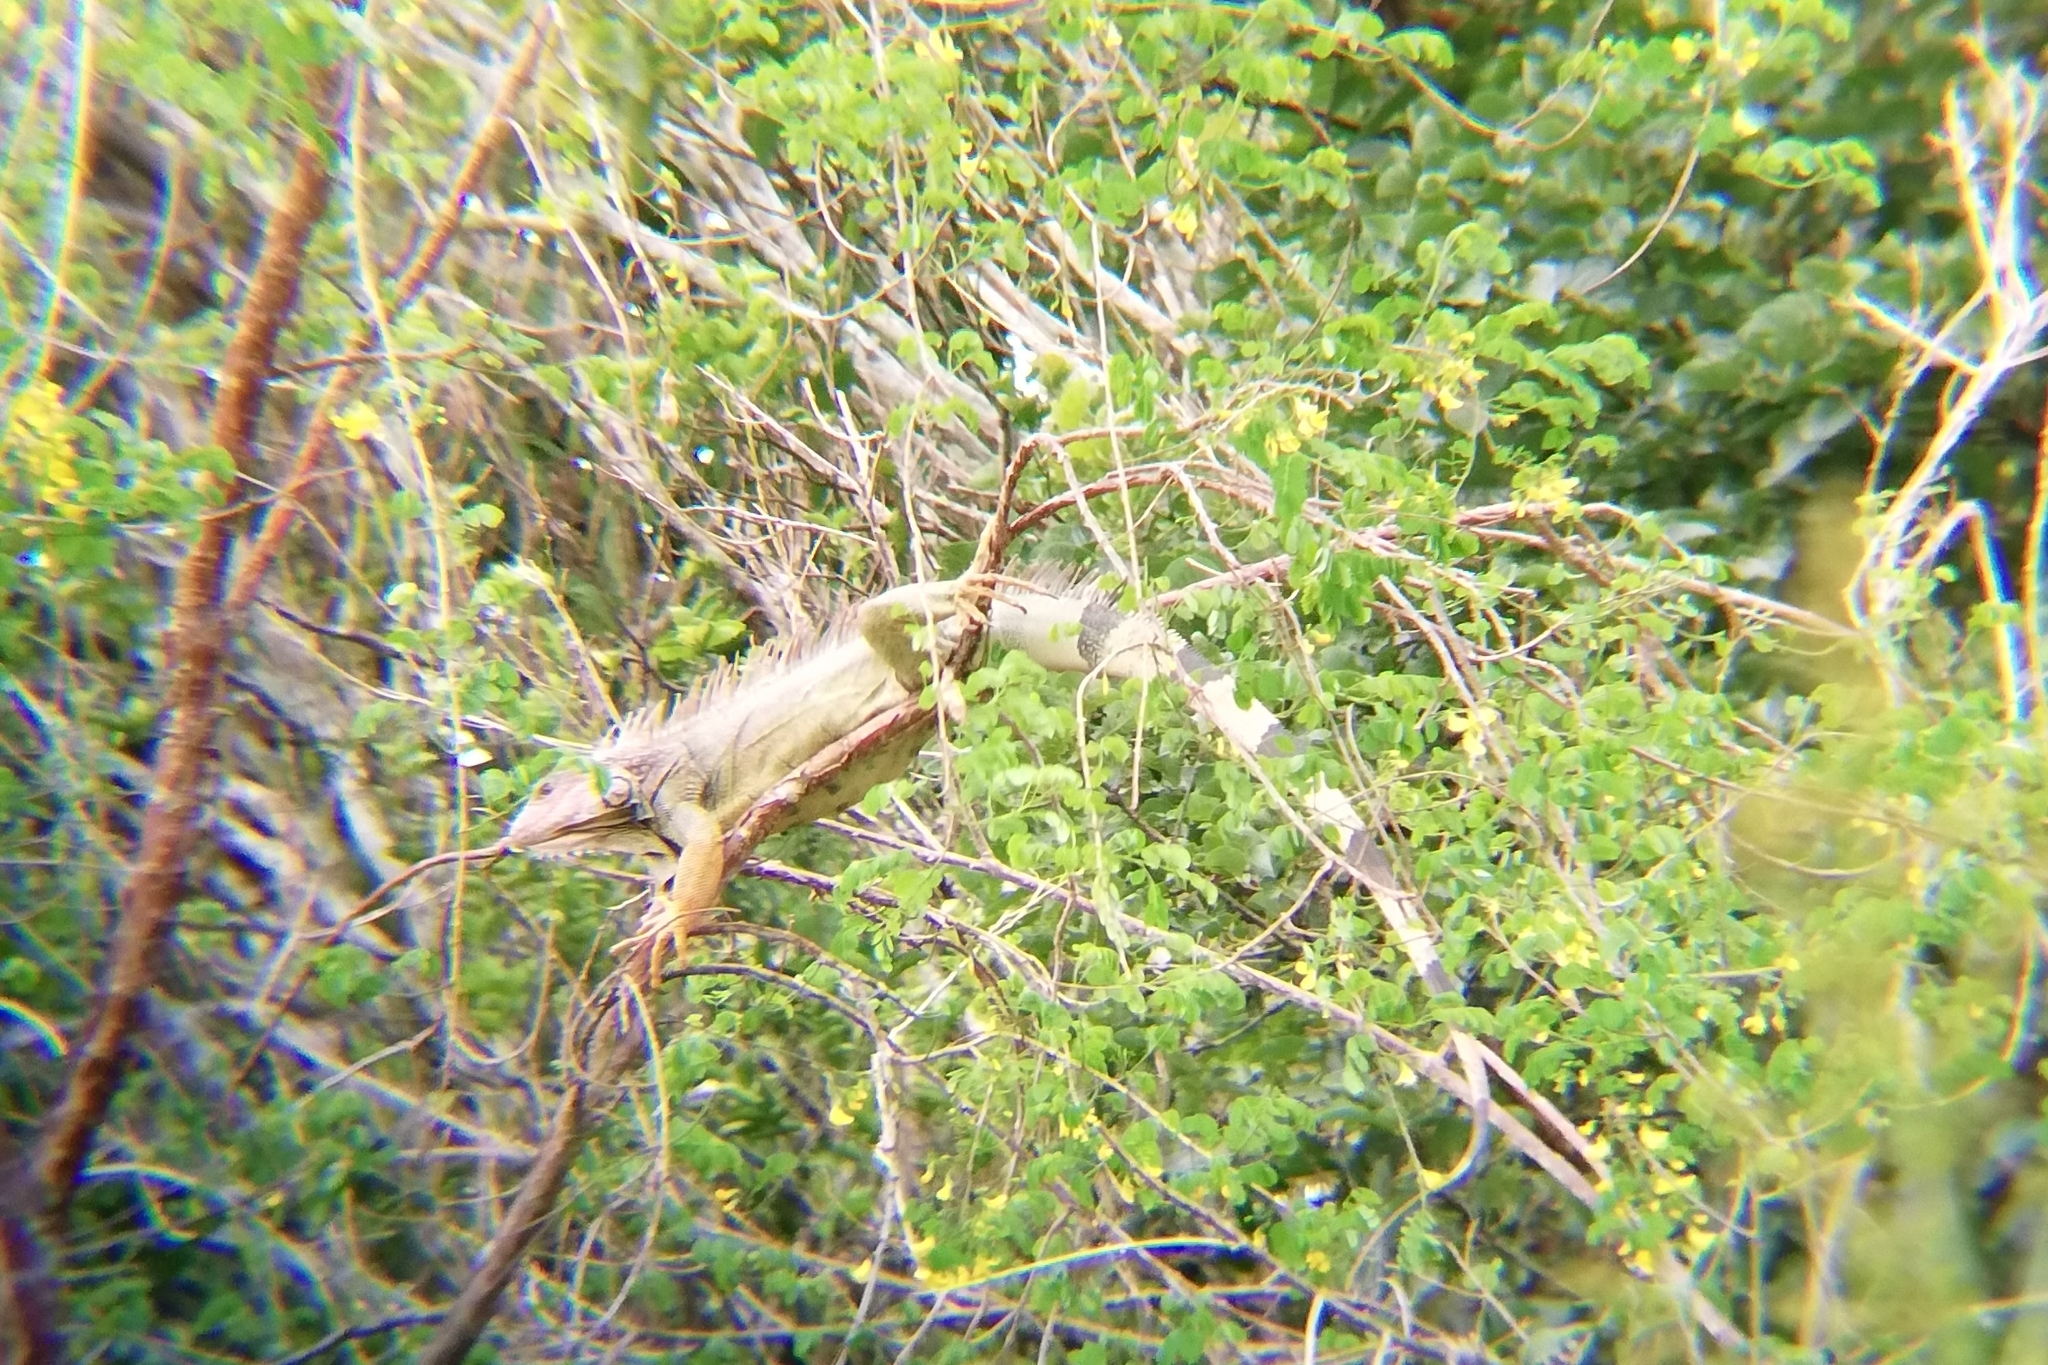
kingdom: Animalia
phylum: Chordata
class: Squamata
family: Iguanidae
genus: Iguana
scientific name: Iguana iguana
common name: Green iguana
